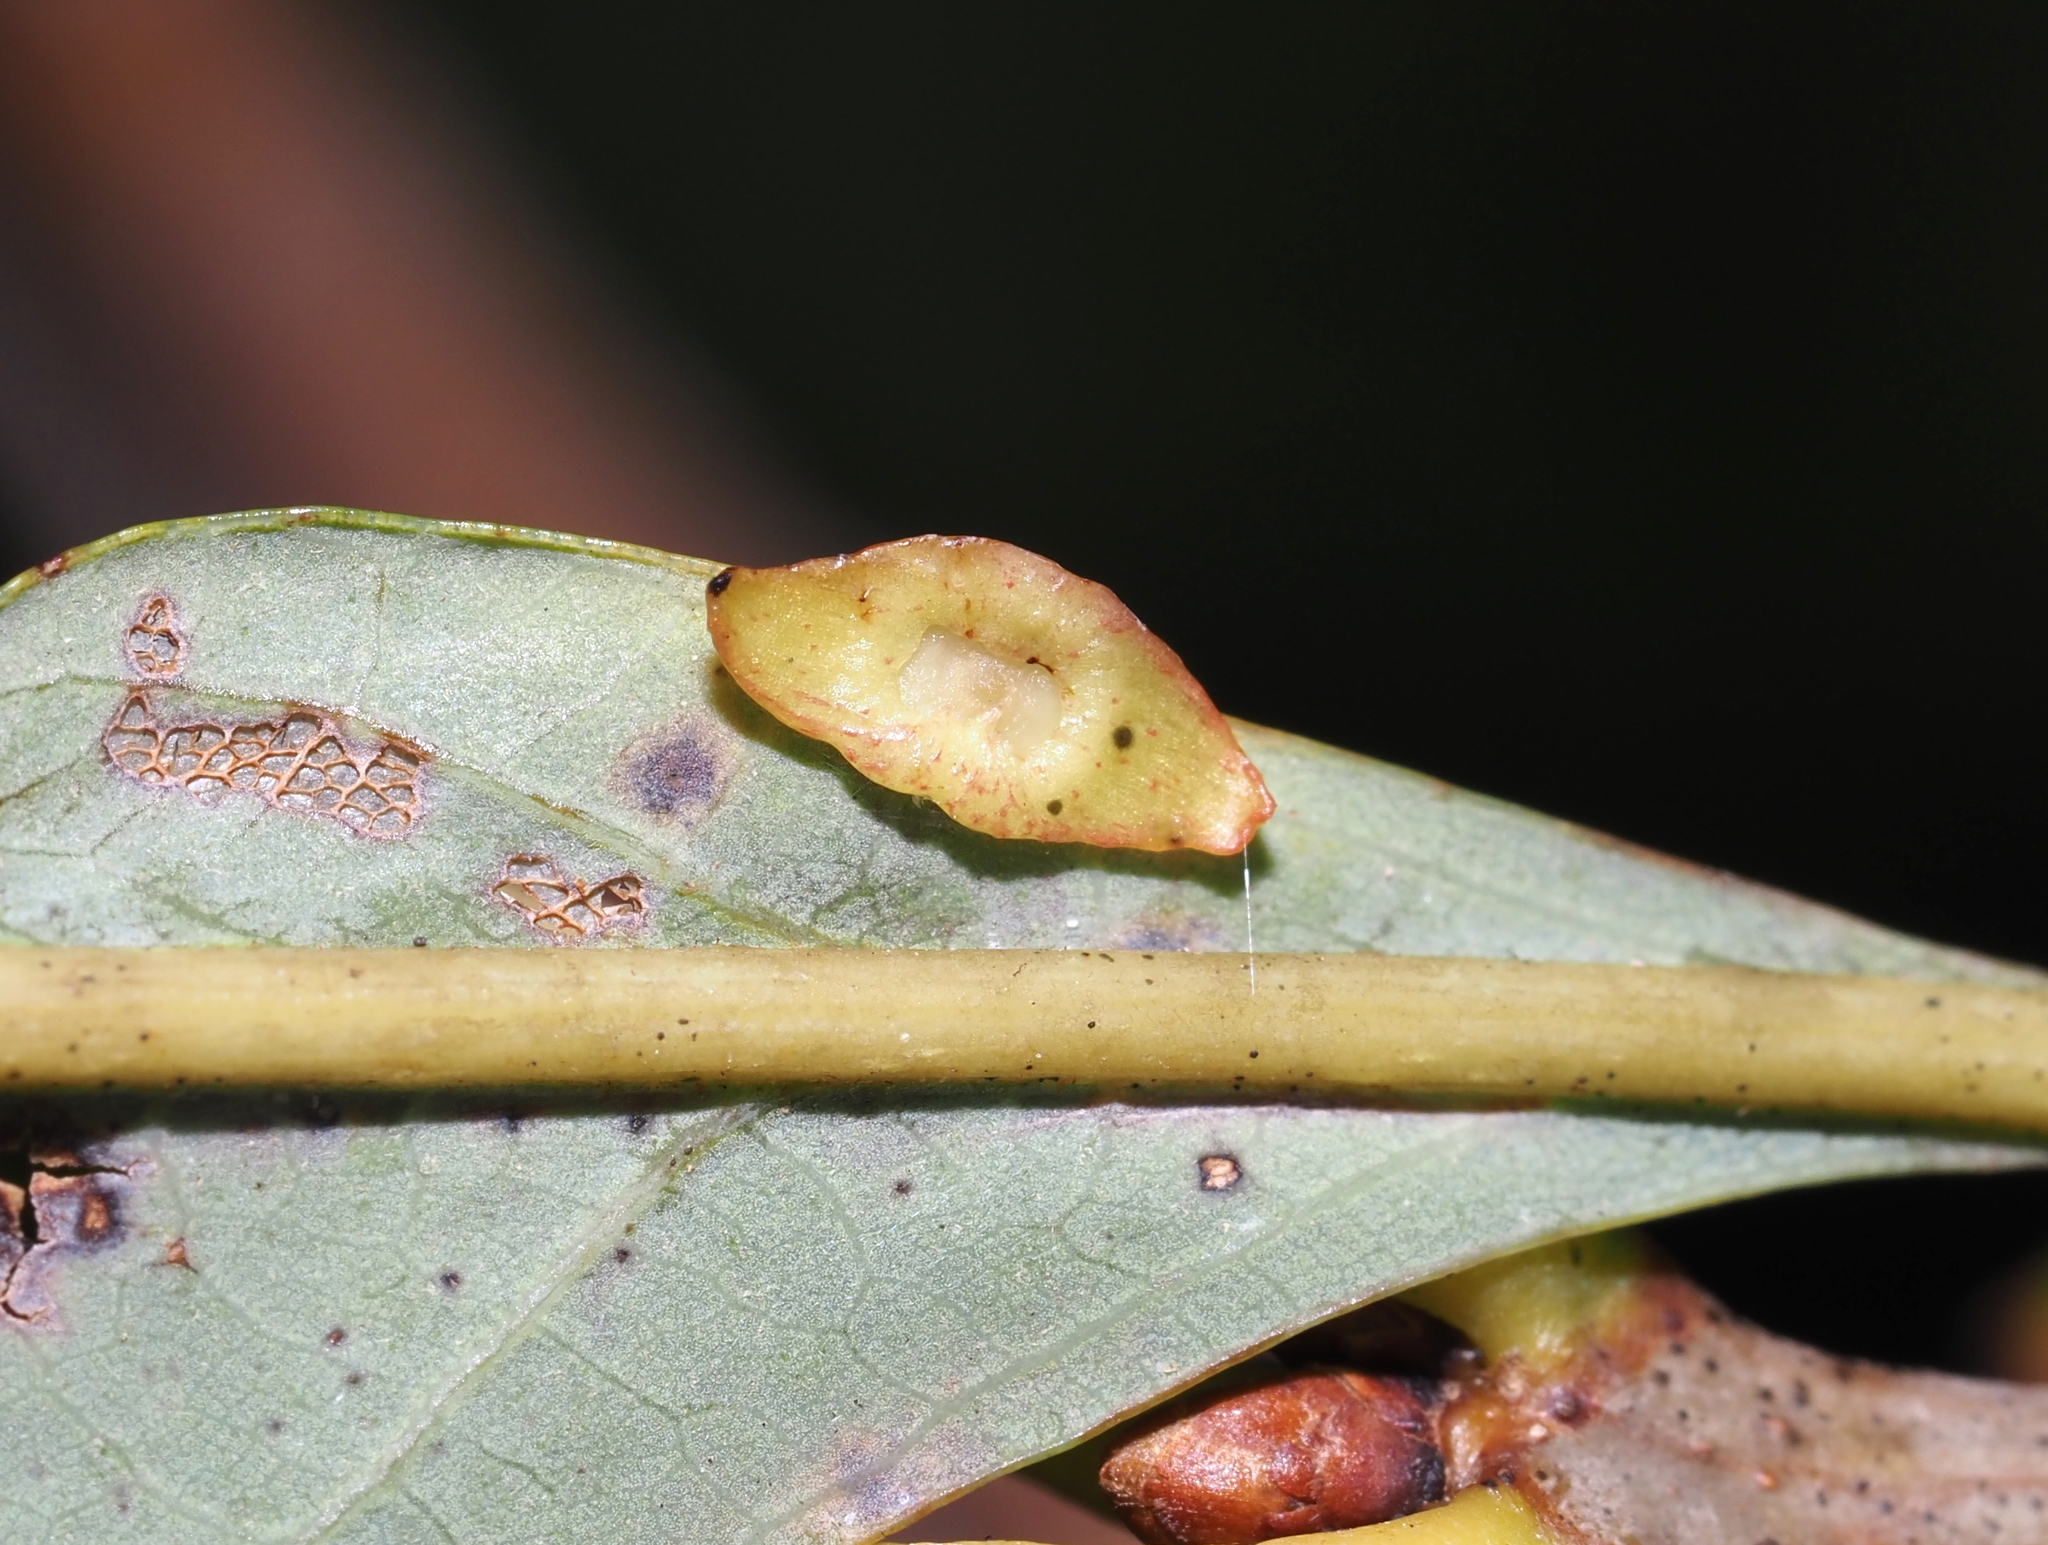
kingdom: Animalia
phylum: Arthropoda
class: Insecta
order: Hymenoptera
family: Cynipidae
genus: Phylloteras
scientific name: Phylloteras
